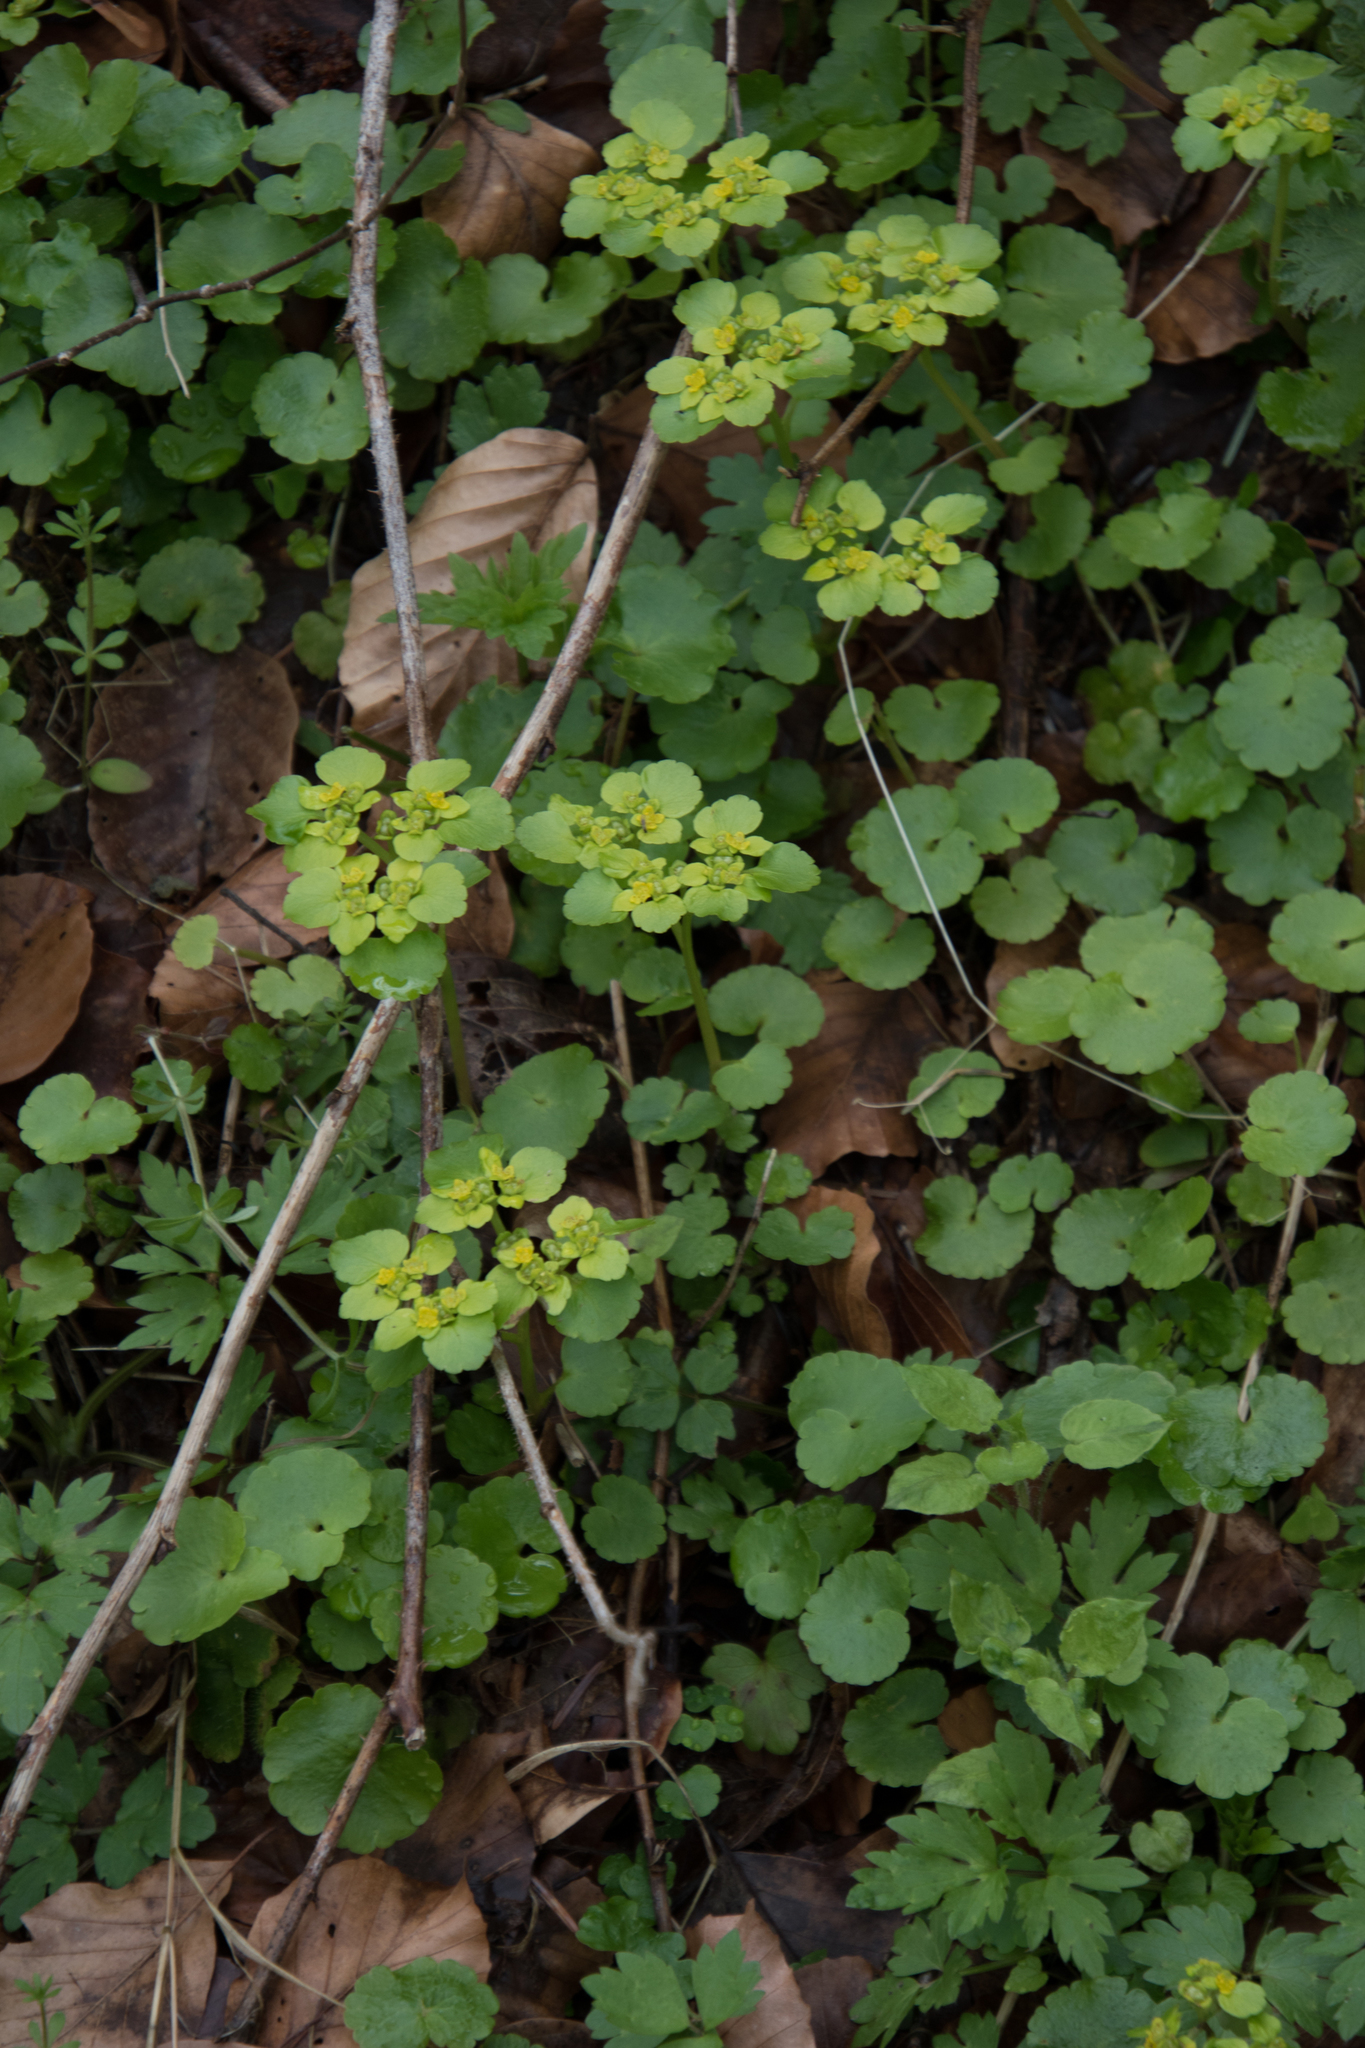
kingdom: Plantae
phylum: Tracheophyta
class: Magnoliopsida
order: Saxifragales
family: Saxifragaceae
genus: Chrysosplenium
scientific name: Chrysosplenium alternifolium
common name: Alternate-leaved golden-saxifrage
